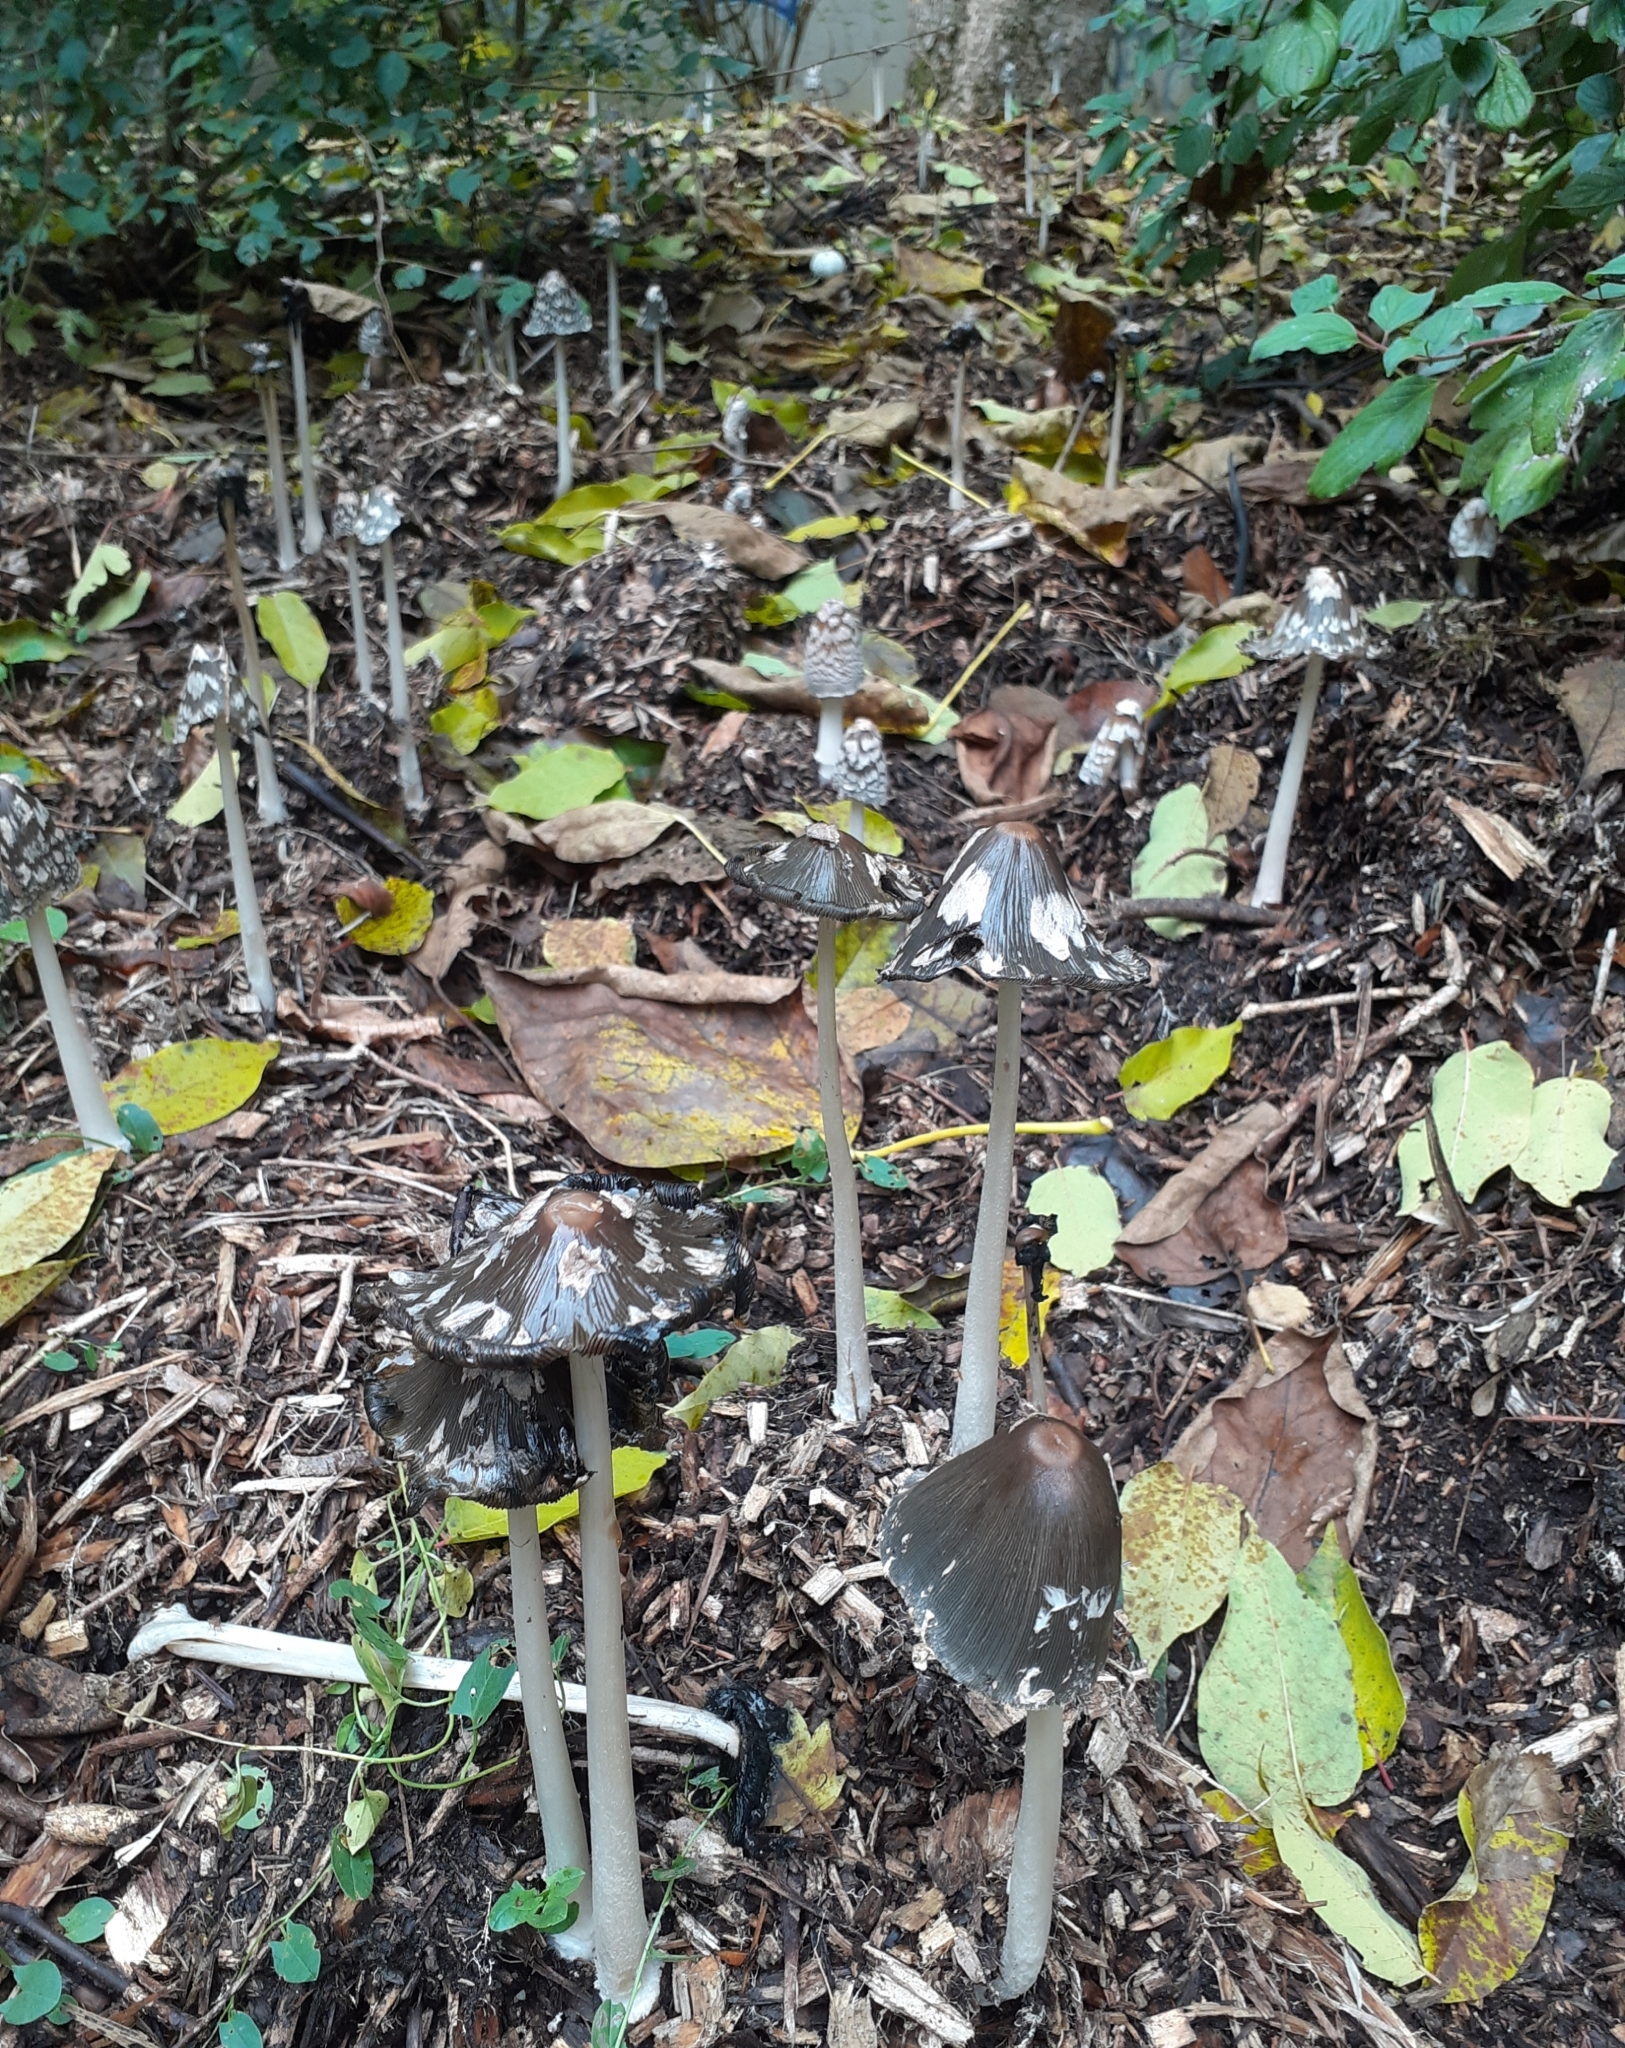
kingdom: Fungi
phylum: Basidiomycota
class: Agaricomycetes
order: Agaricales
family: Psathyrellaceae
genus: Coprinopsis
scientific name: Coprinopsis picacea
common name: Magpie inkcap
